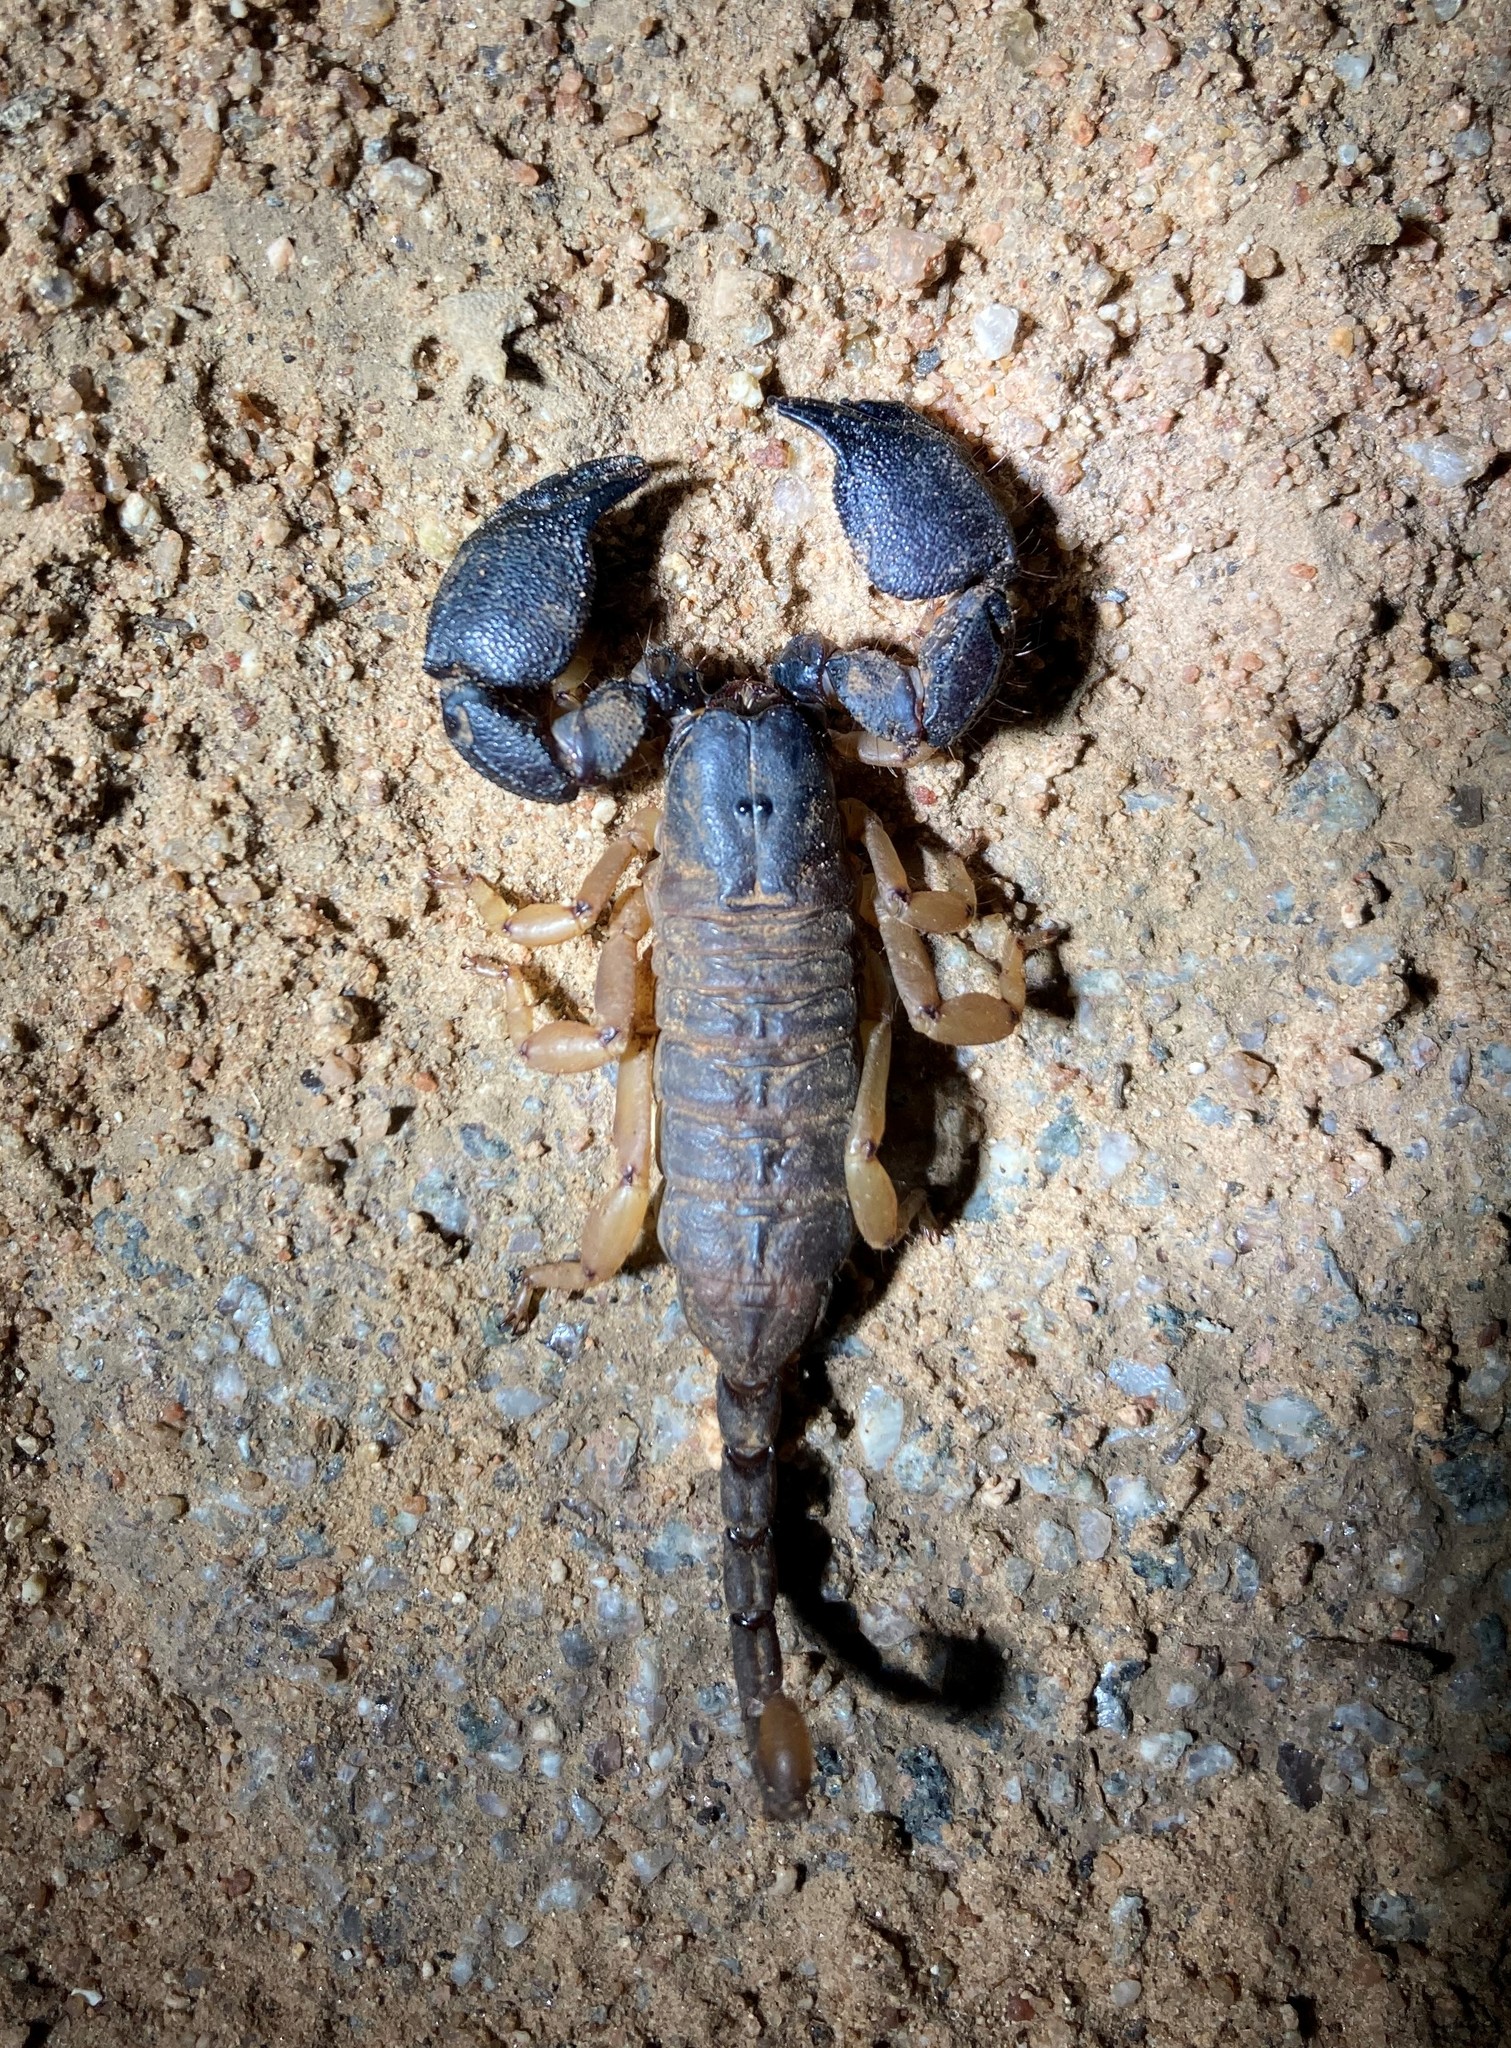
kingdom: Animalia
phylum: Arthropoda
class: Arachnida
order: Scorpiones
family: Hormuridae
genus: Cheloctonus
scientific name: Cheloctonus jonesii
